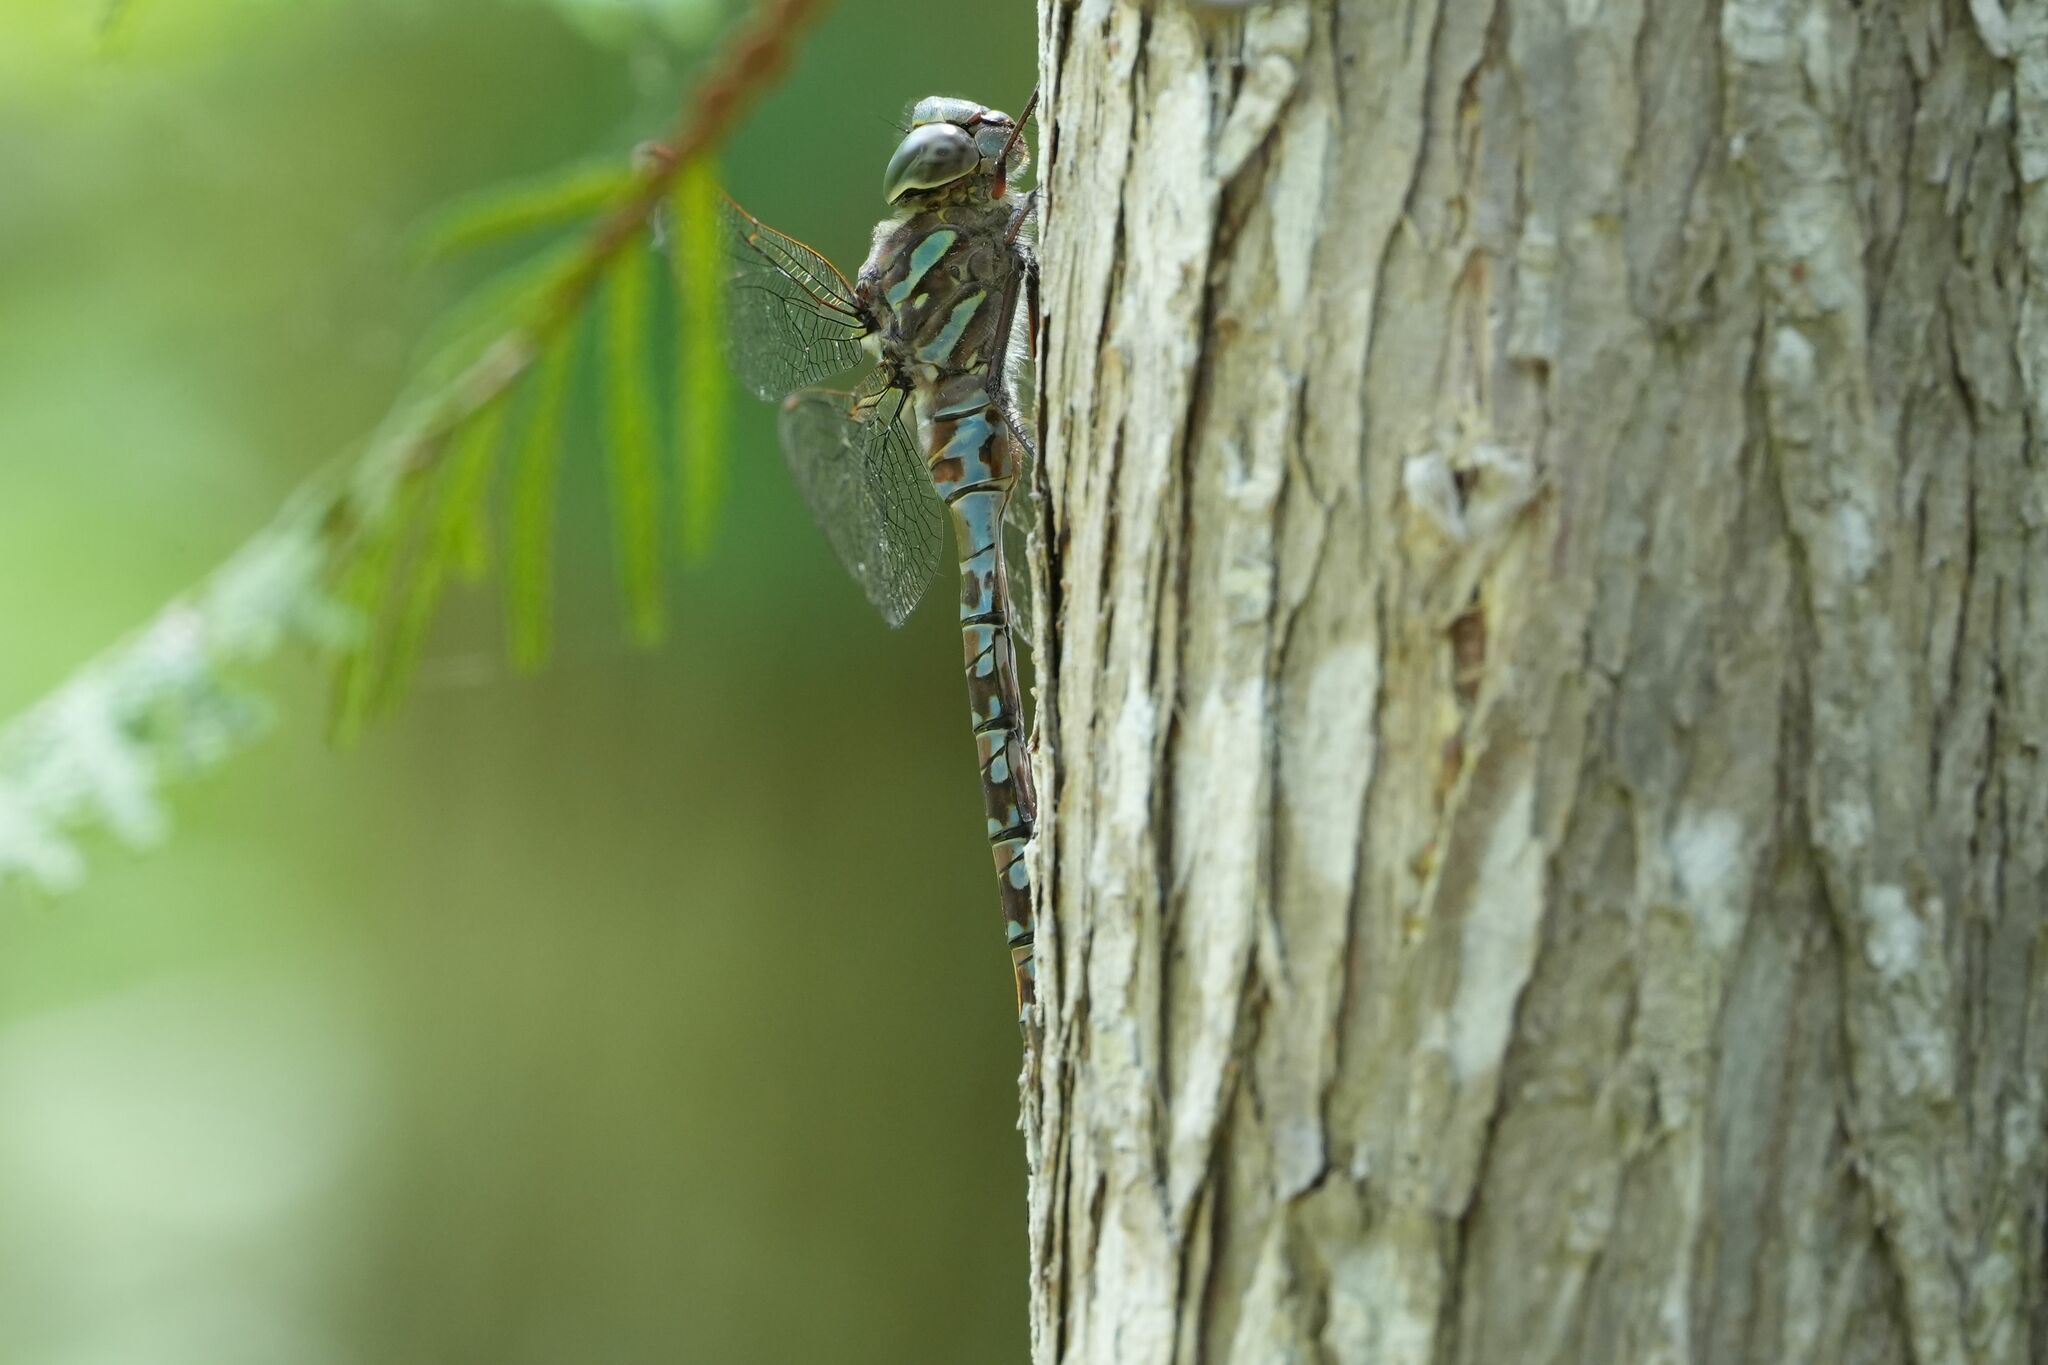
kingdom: Animalia
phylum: Arthropoda
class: Insecta
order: Odonata
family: Aeshnidae
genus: Aeshna
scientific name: Aeshna canadensis
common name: Canada darner
